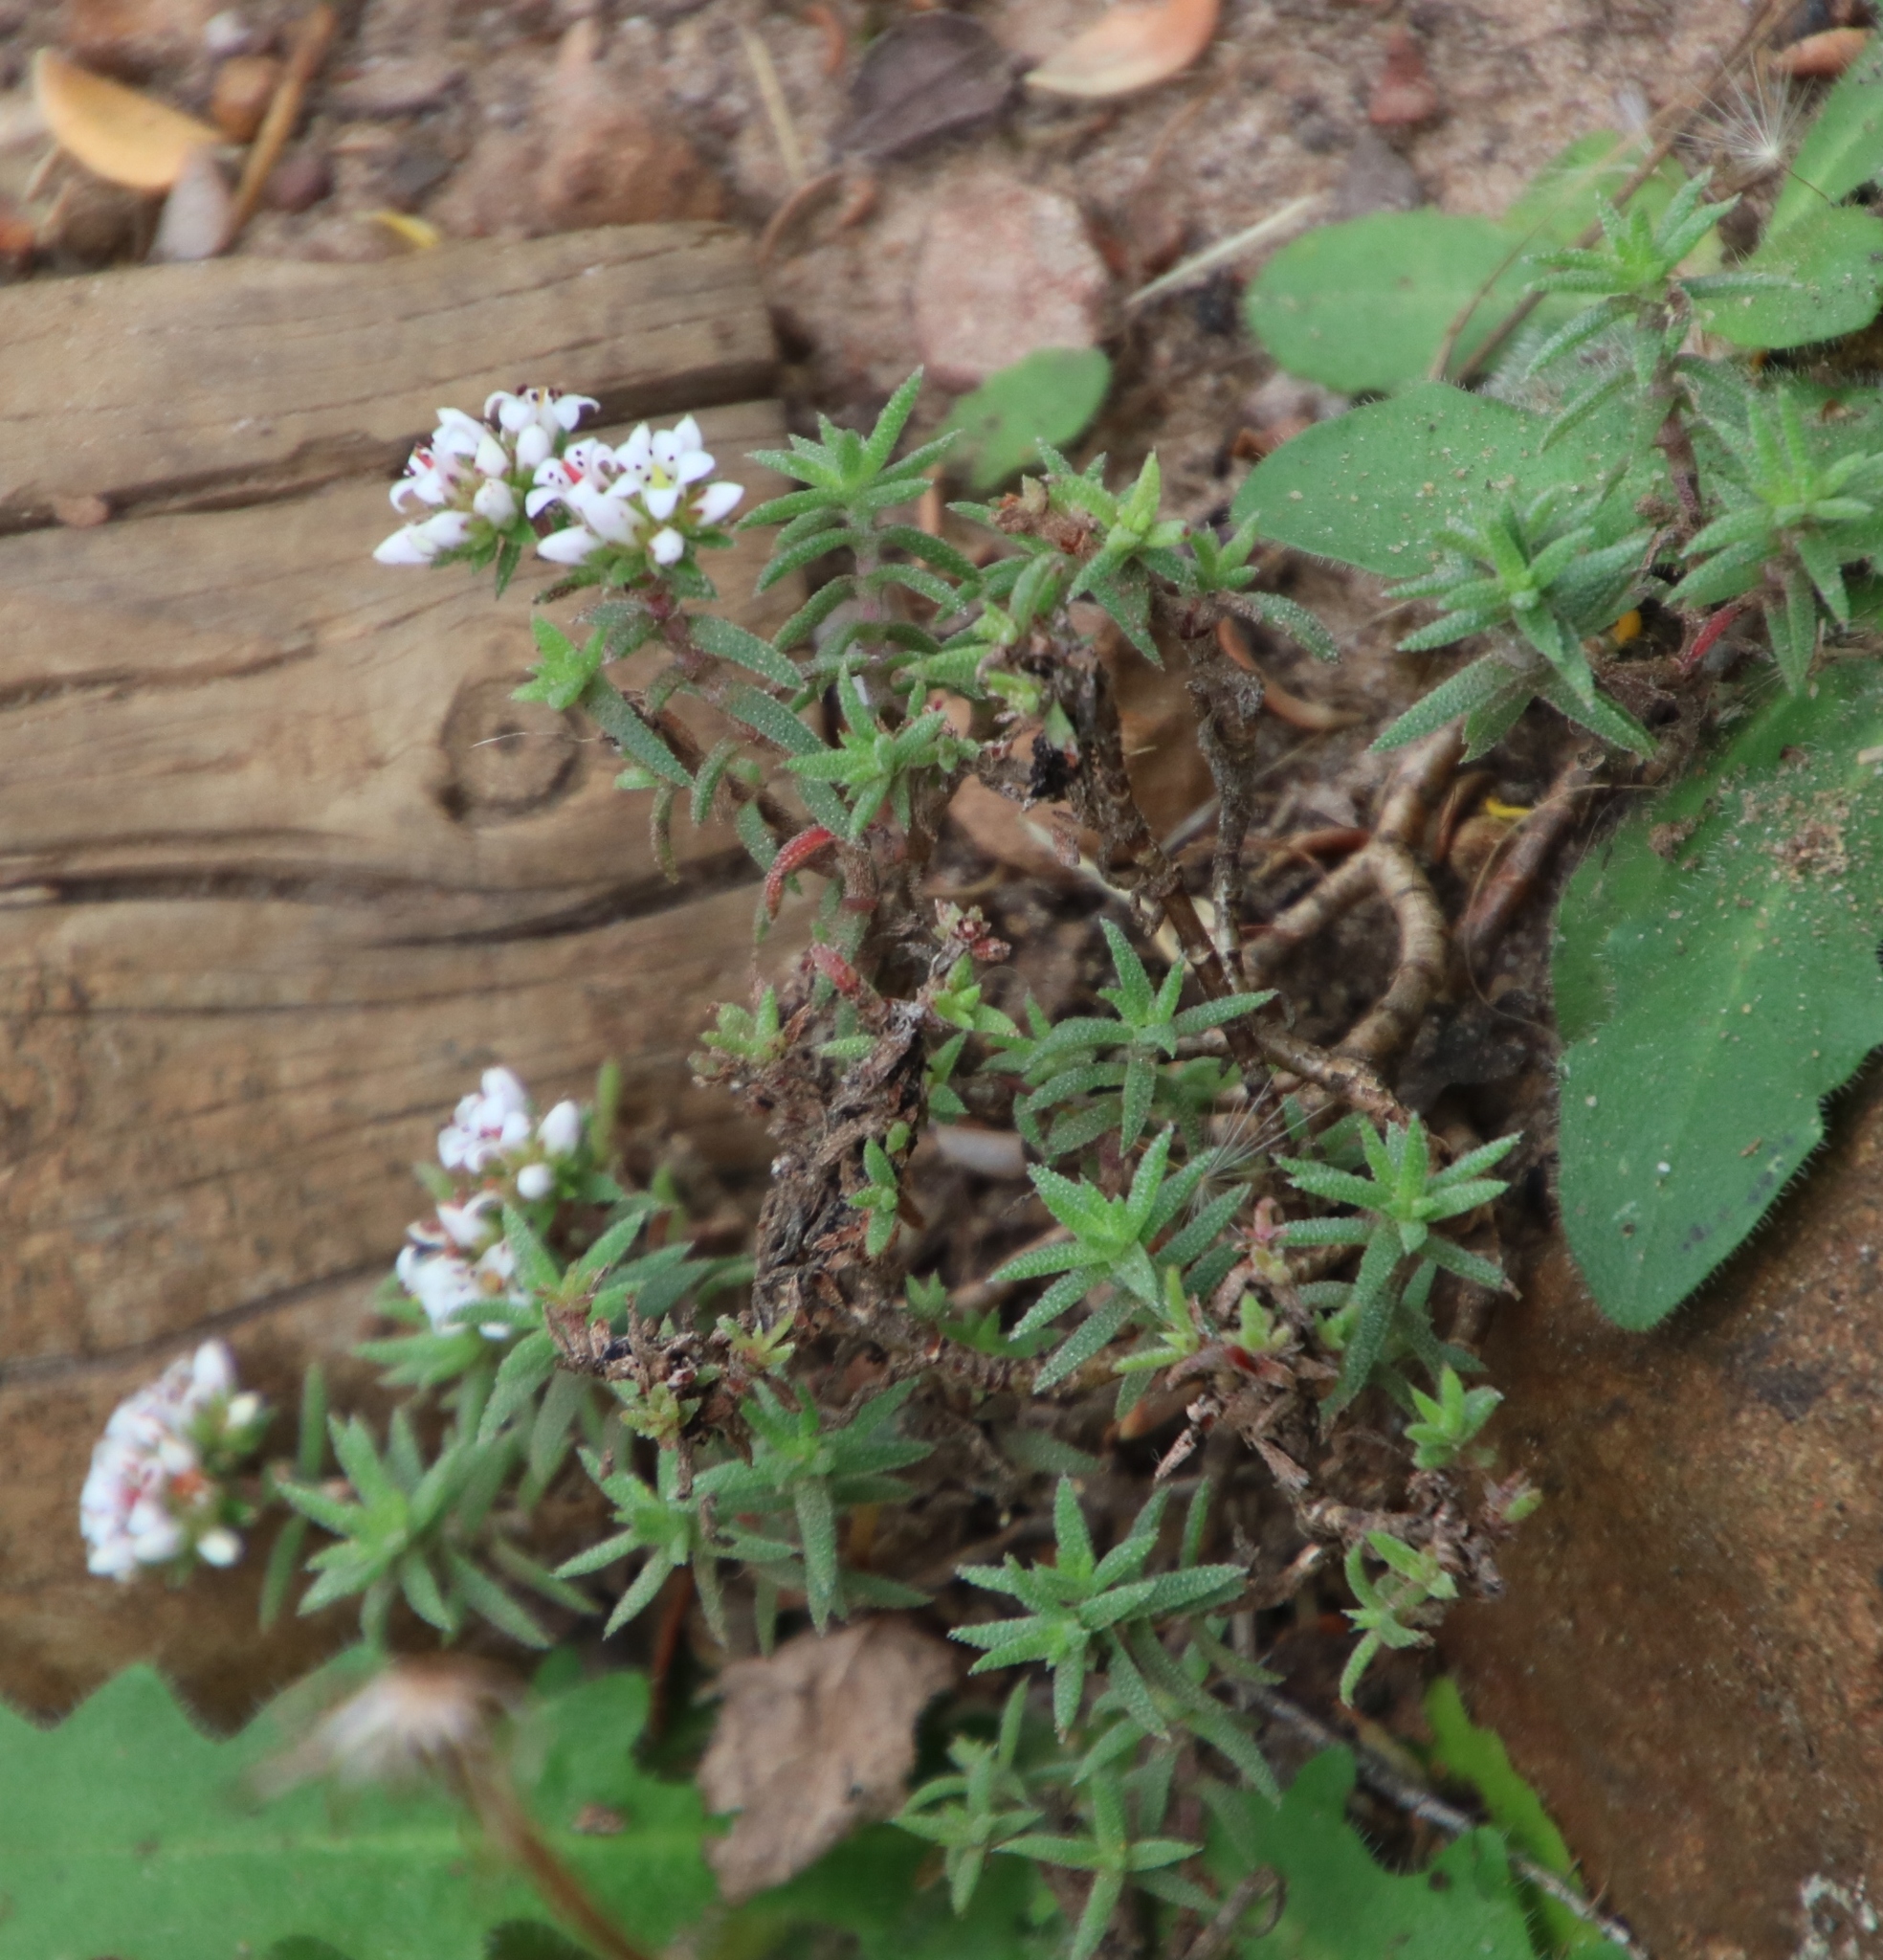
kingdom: Plantae
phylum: Tracheophyta
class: Magnoliopsida
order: Saxifragales
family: Crassulaceae
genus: Crassula
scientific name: Crassula pruinosa
